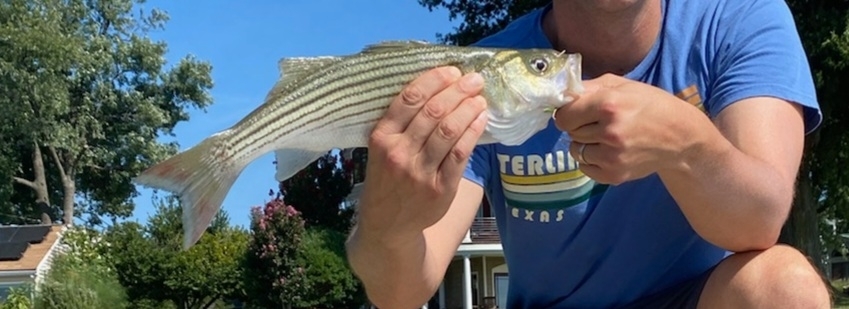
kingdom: Animalia
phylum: Chordata
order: Perciformes
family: Moronidae
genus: Morone
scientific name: Morone saxatilis
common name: Striped bass
